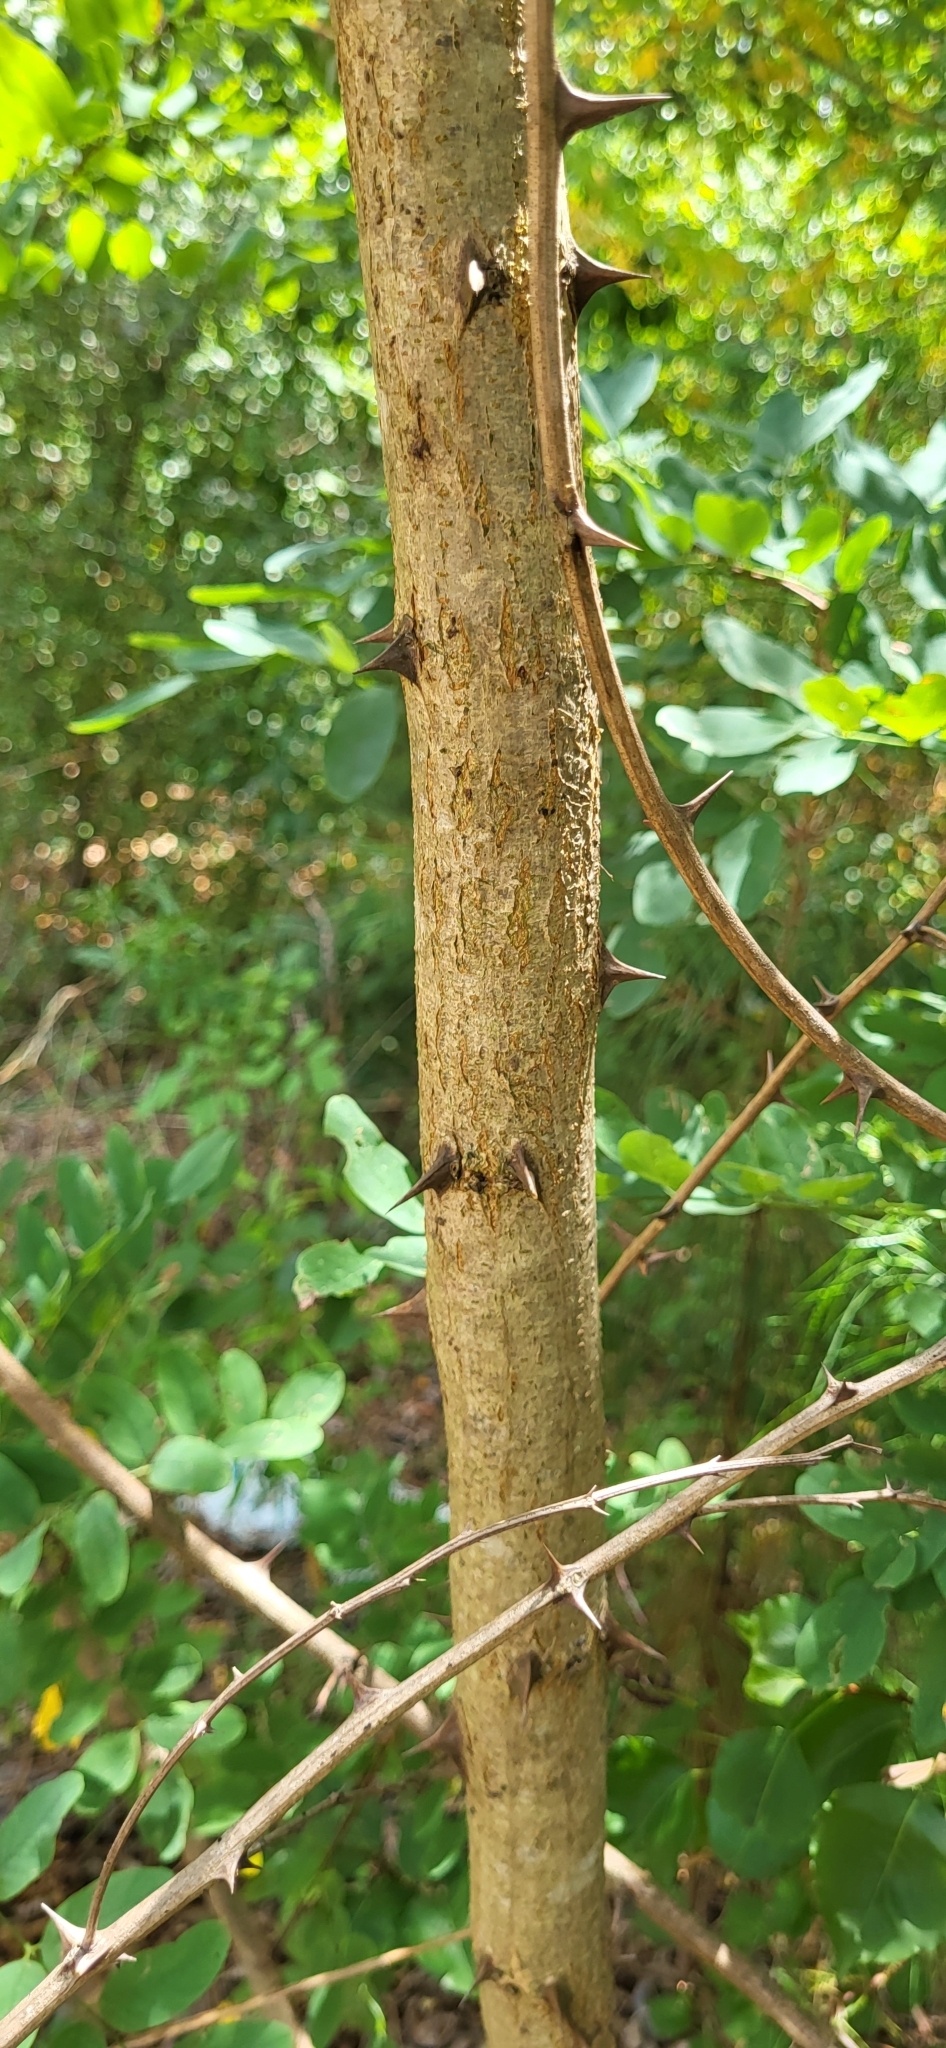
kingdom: Plantae
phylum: Tracheophyta
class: Magnoliopsida
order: Fabales
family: Fabaceae
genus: Robinia
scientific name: Robinia pseudoacacia
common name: Black locust
